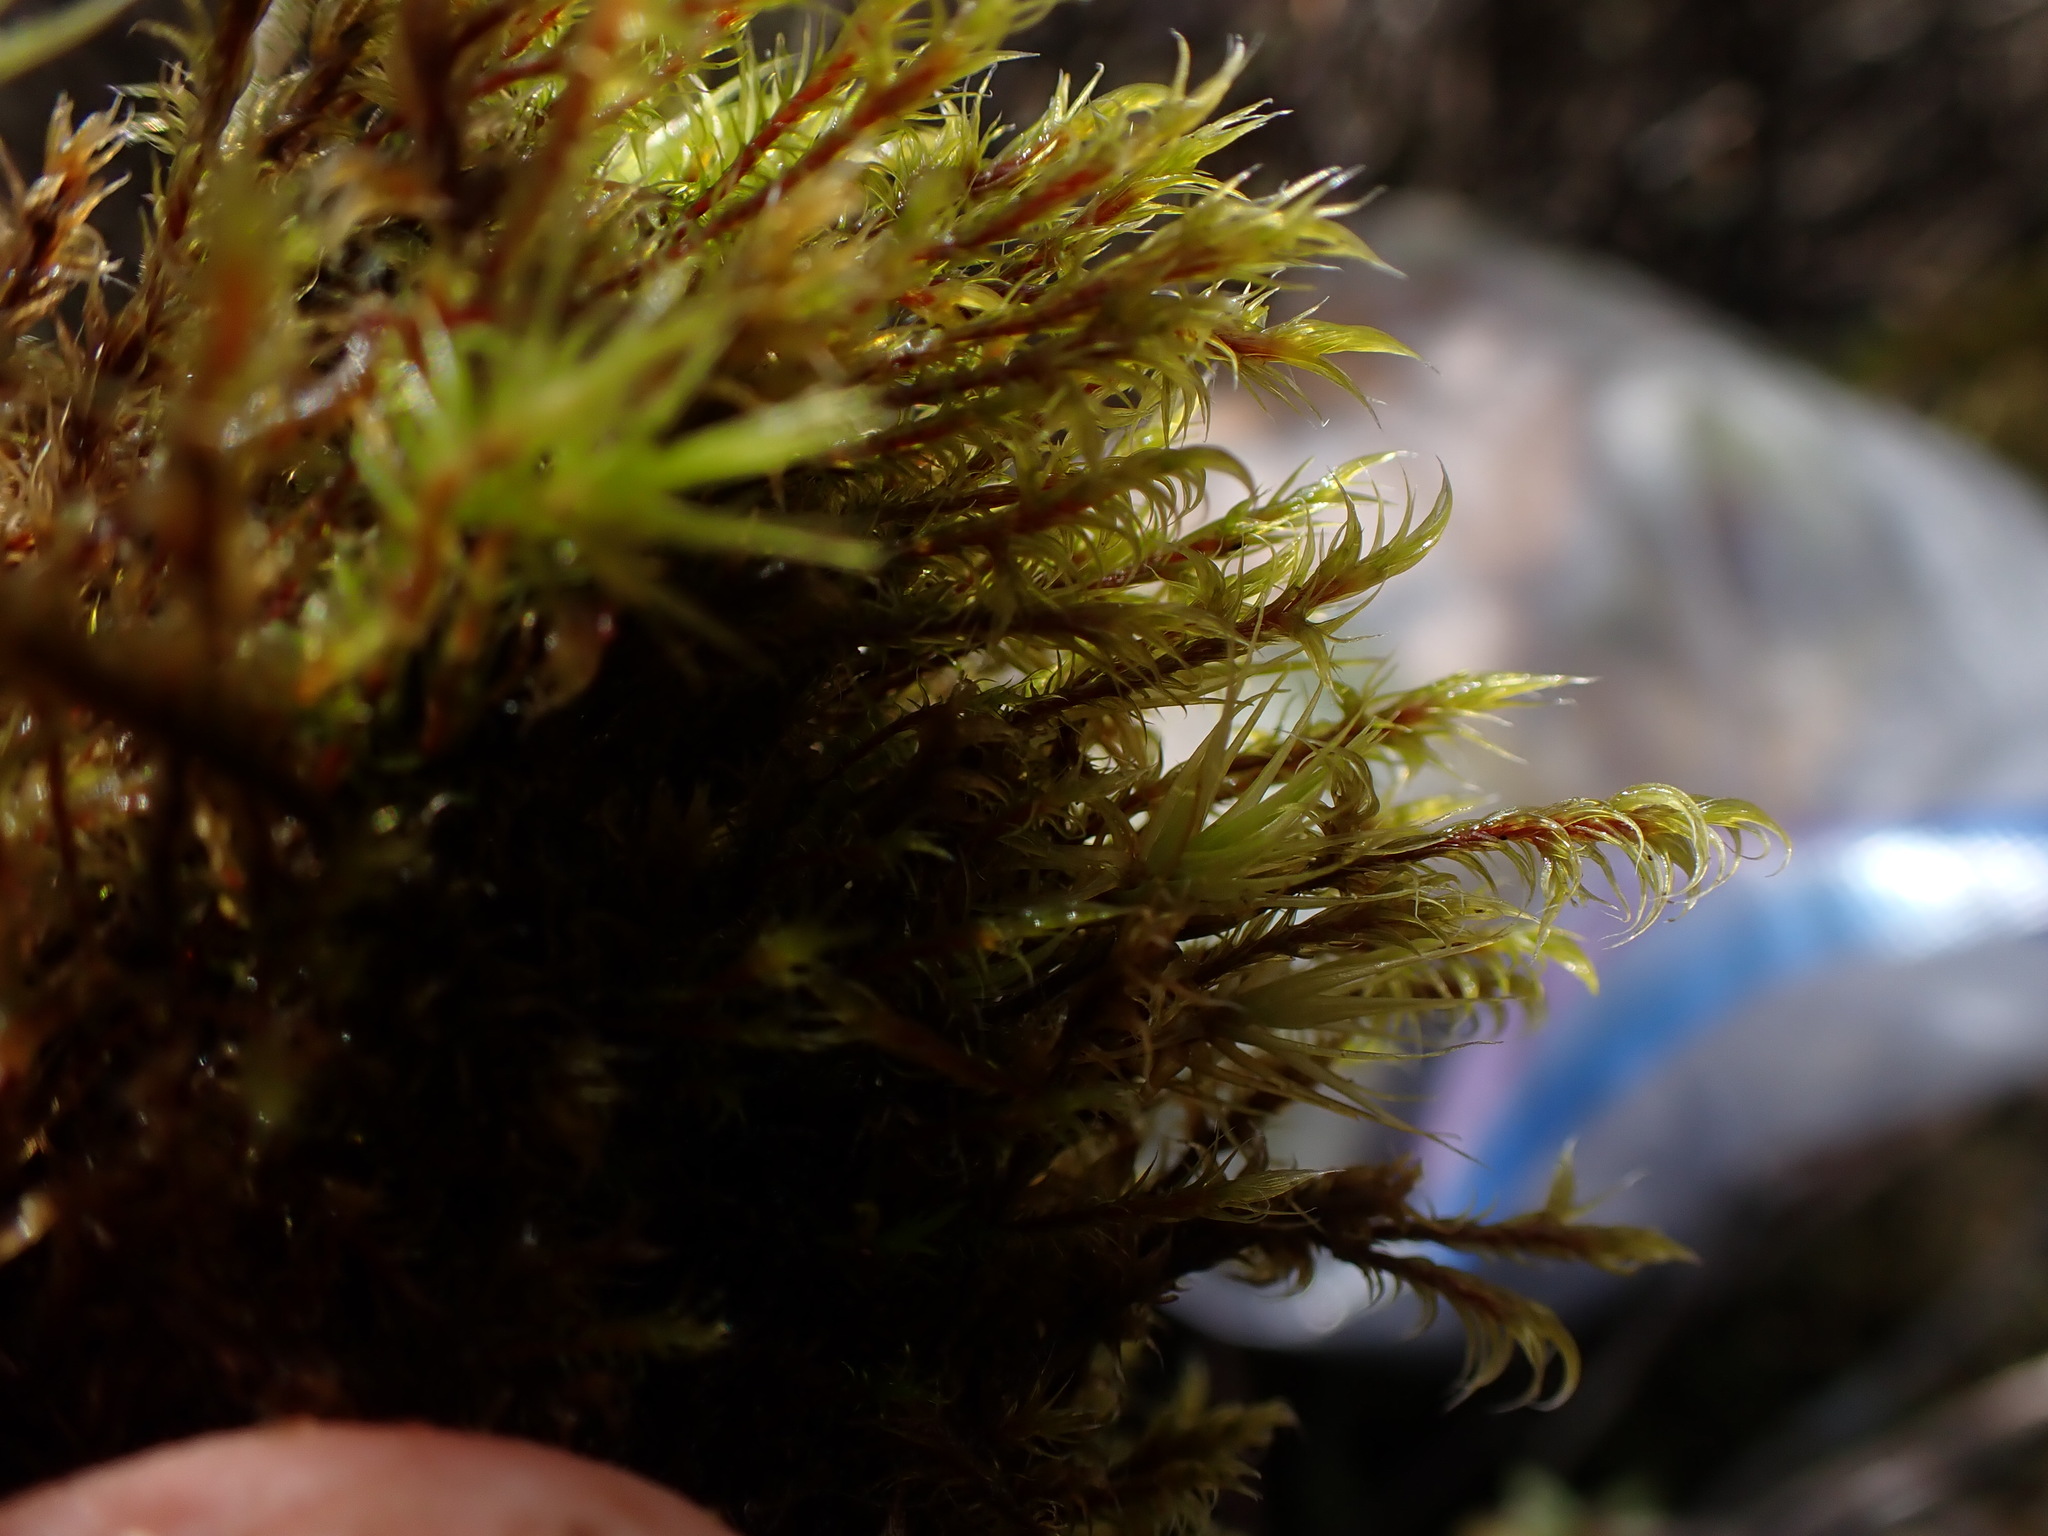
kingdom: Plantae
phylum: Bryophyta
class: Bryopsida
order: Grimmiales
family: Grimmiaceae
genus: Niphotrichum
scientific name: Niphotrichum ericoides
